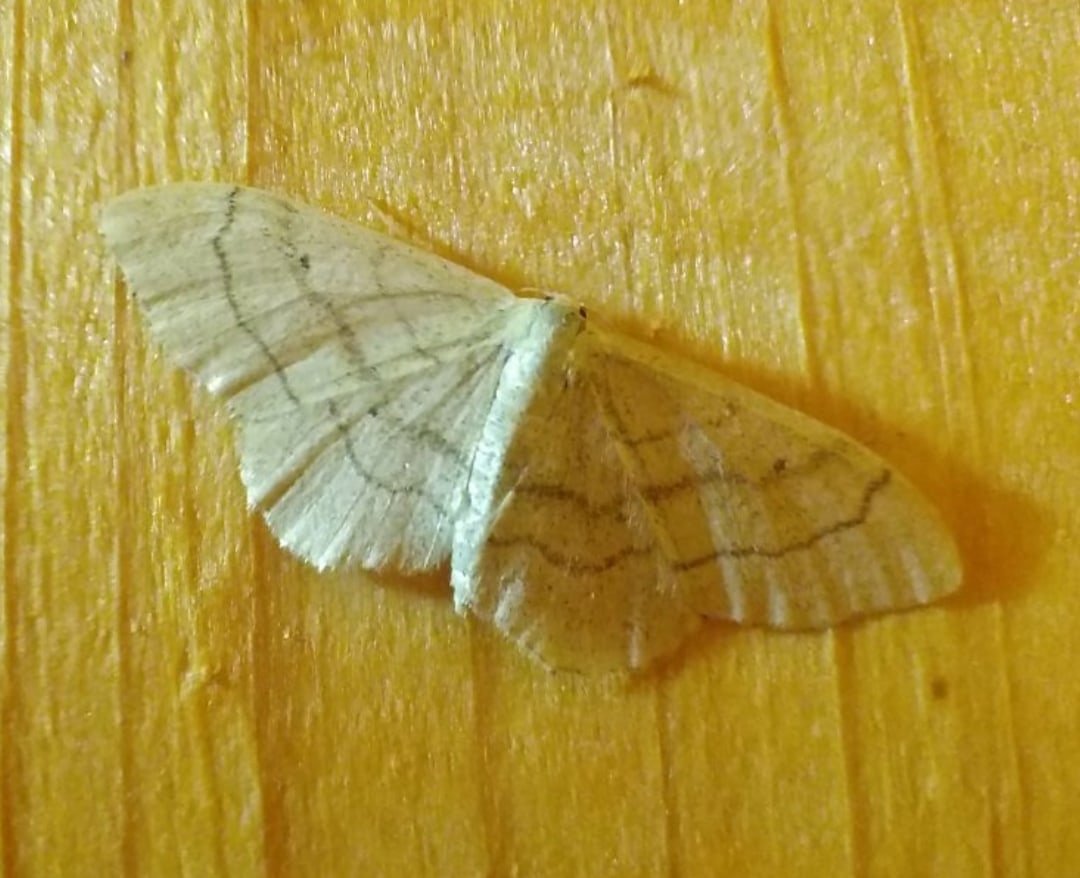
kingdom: Animalia
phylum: Arthropoda
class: Insecta
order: Lepidoptera
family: Geometridae
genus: Idaea
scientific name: Idaea aversata
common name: Riband wave
